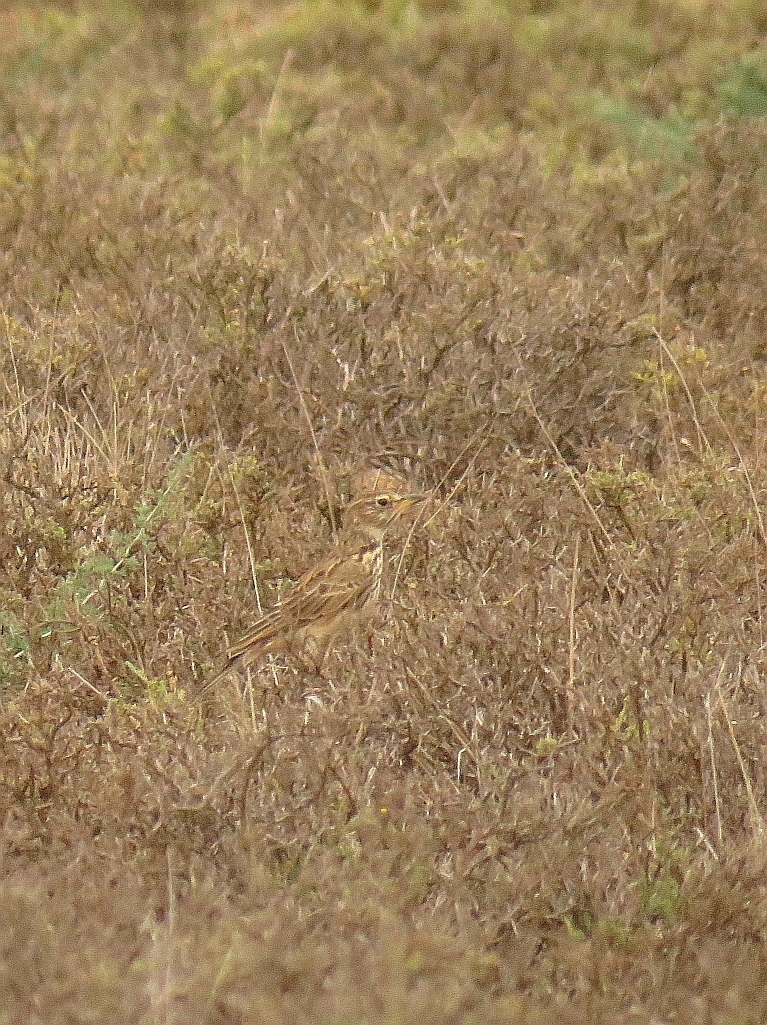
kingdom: Animalia
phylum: Chordata
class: Aves
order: Passeriformes
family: Alaudidae
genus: Galerida
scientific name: Galerida magnirostris
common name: Large-billed lark
